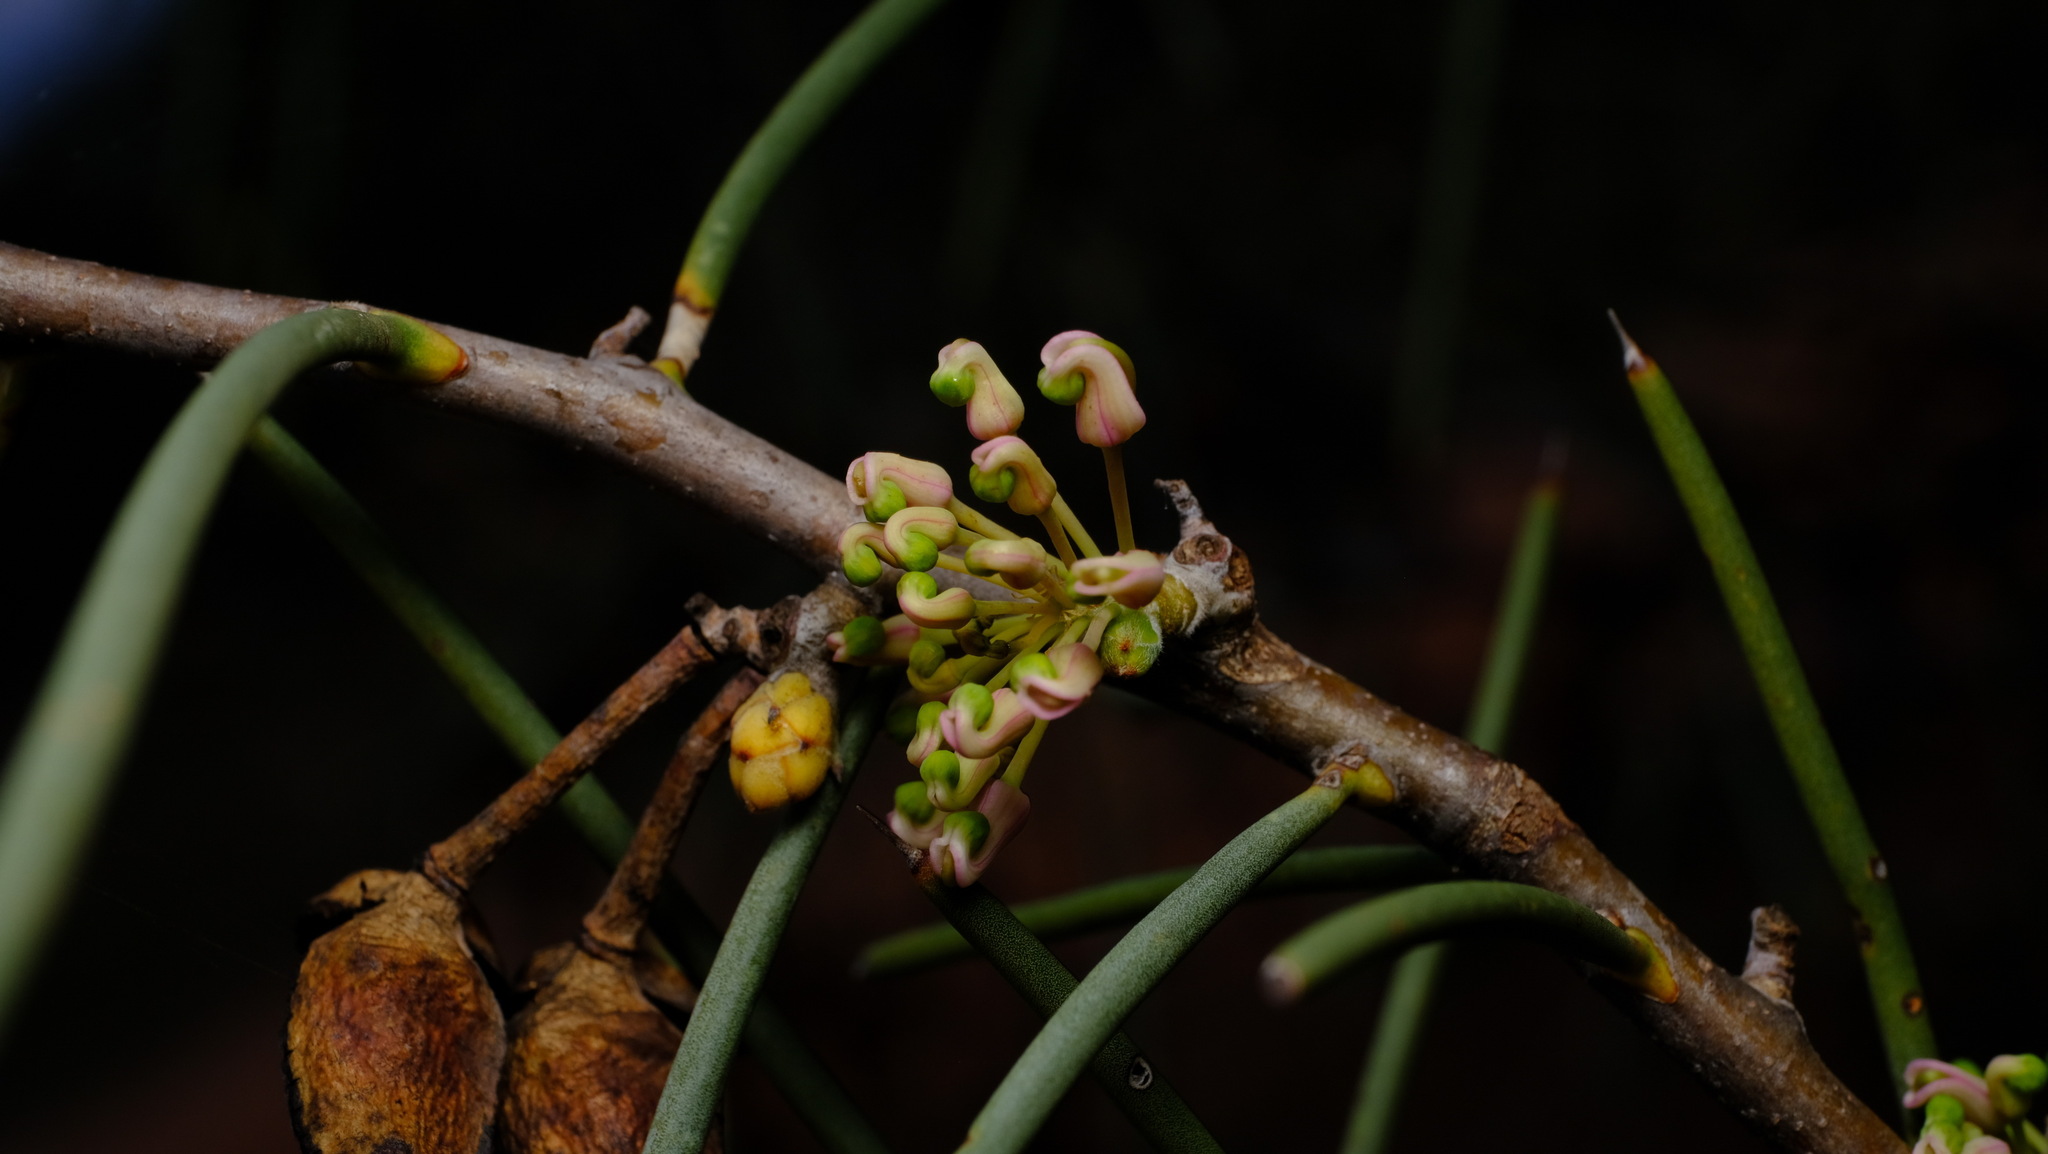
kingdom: Plantae
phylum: Tracheophyta
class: Magnoliopsida
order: Proteales
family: Proteaceae
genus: Hakea
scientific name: Hakea recurva
